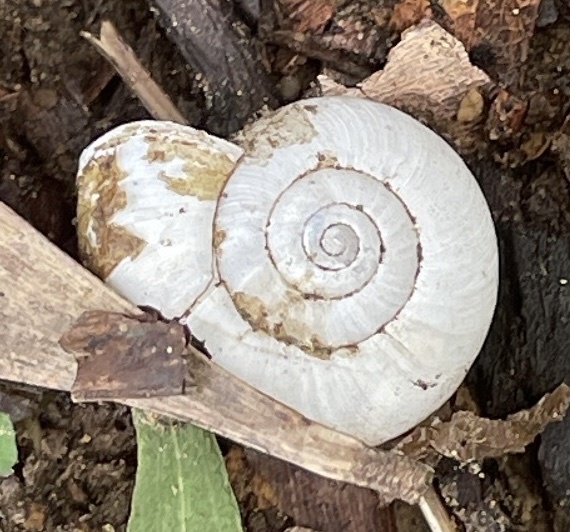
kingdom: Animalia
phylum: Mollusca
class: Gastropoda
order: Stylommatophora
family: Haplotrematidae
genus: Haplotrema
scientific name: Haplotrema minimum
